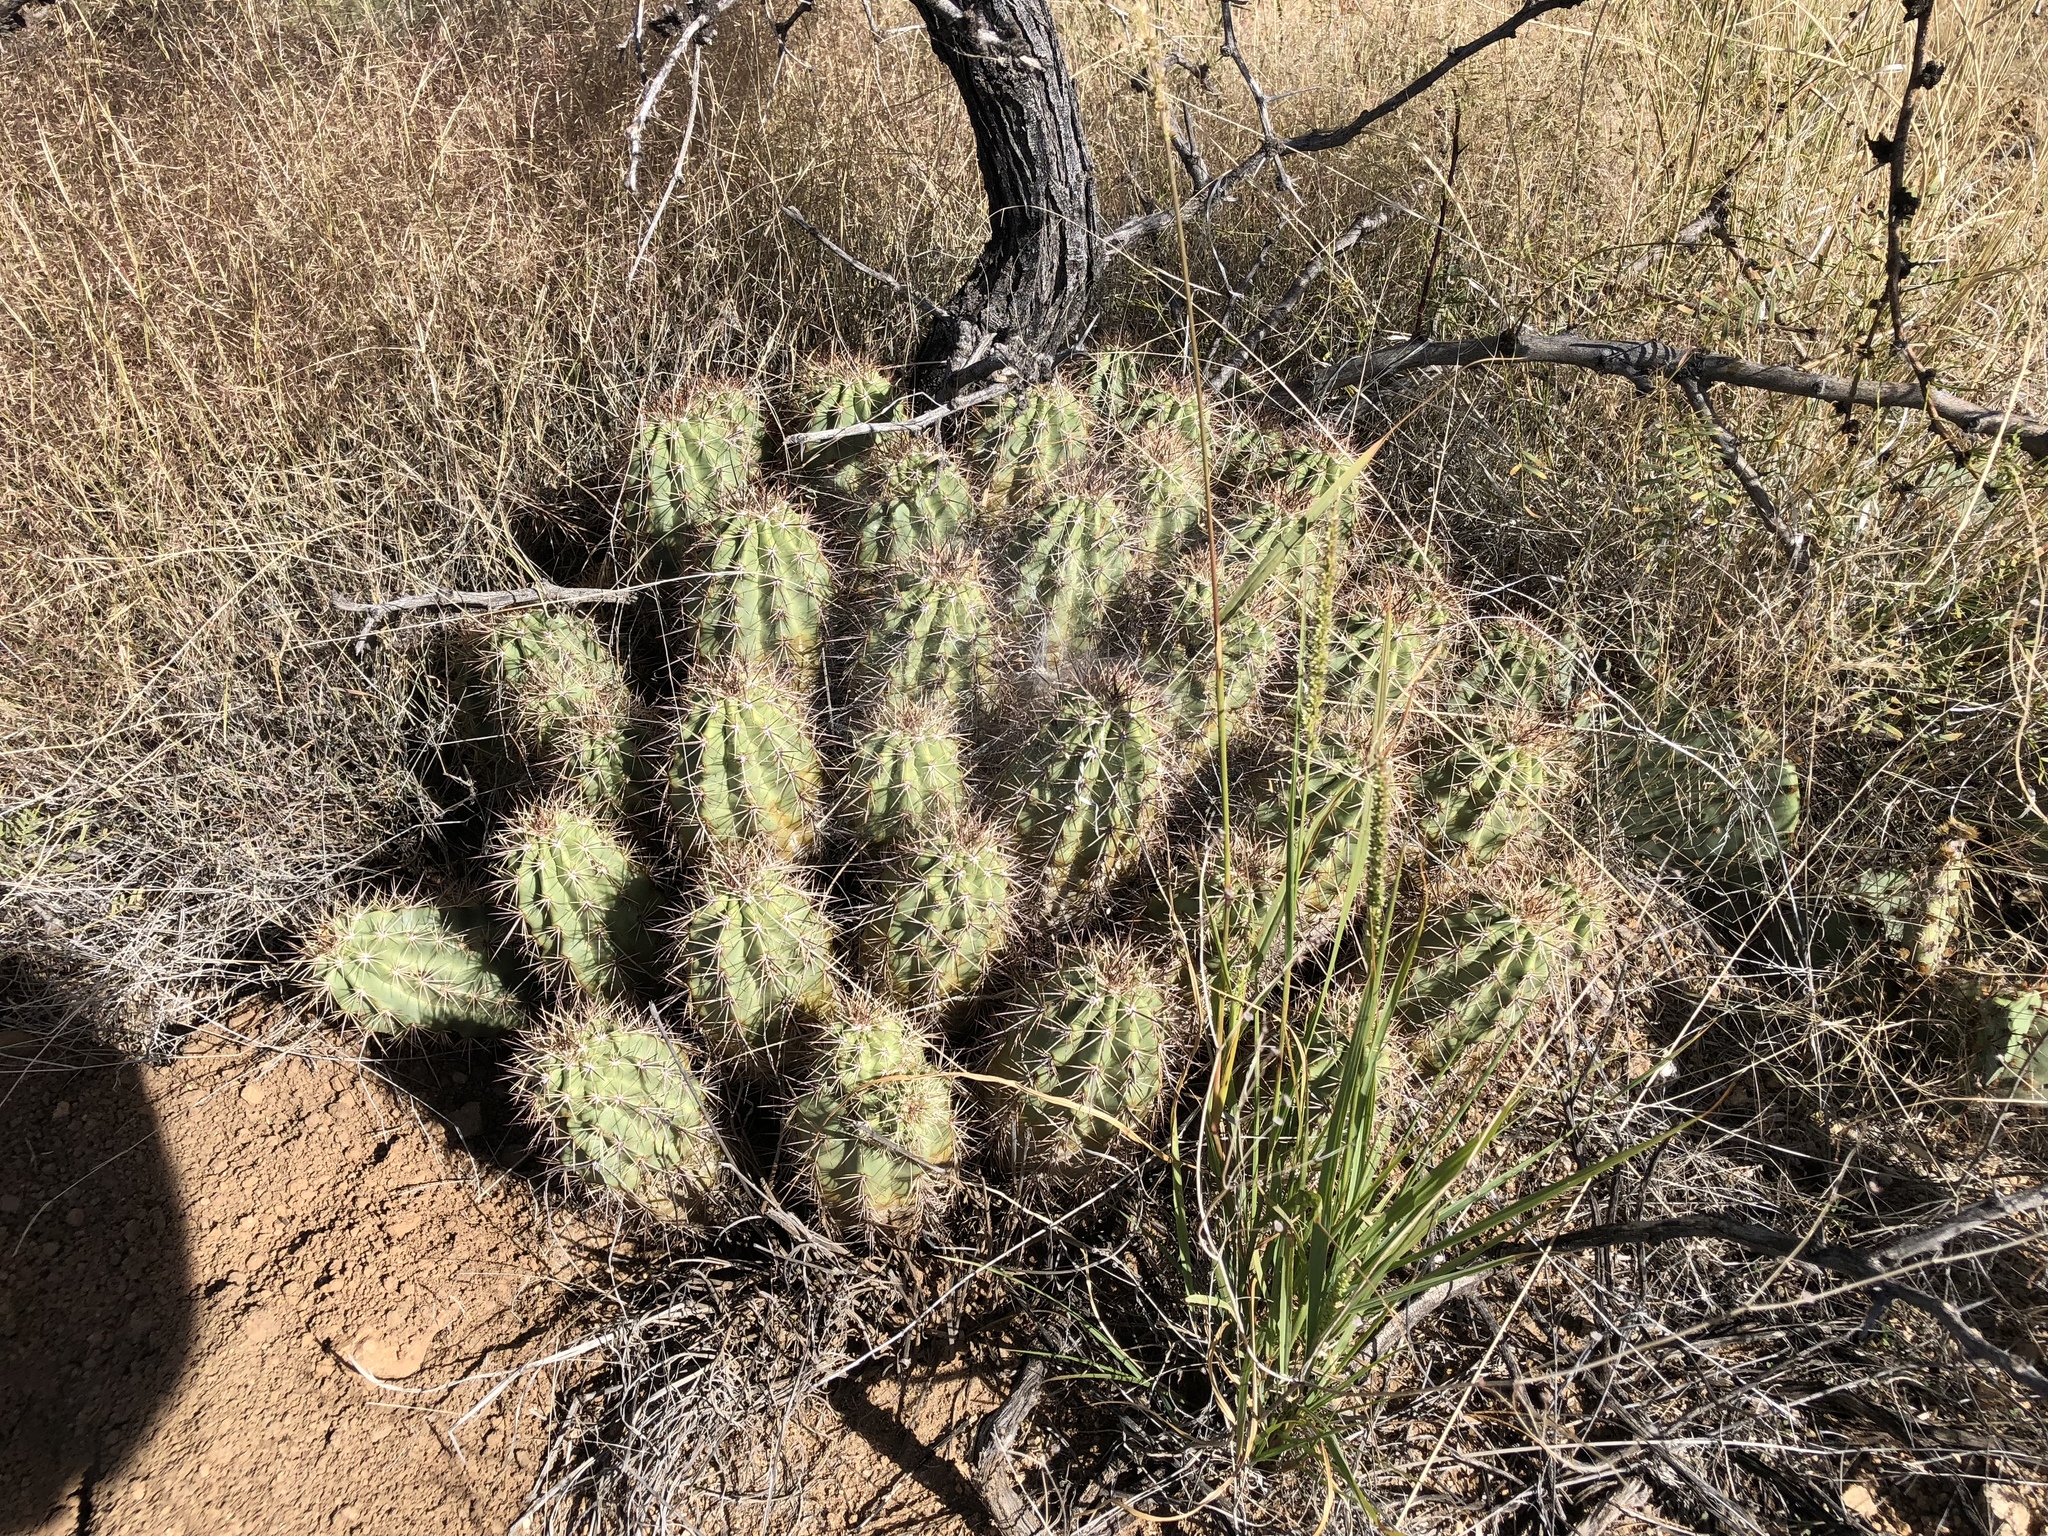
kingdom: Plantae
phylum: Tracheophyta
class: Magnoliopsida
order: Caryophyllales
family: Cactaceae
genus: Echinocereus
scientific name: Echinocereus coccineus
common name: Scarlet hedgehog cactus
